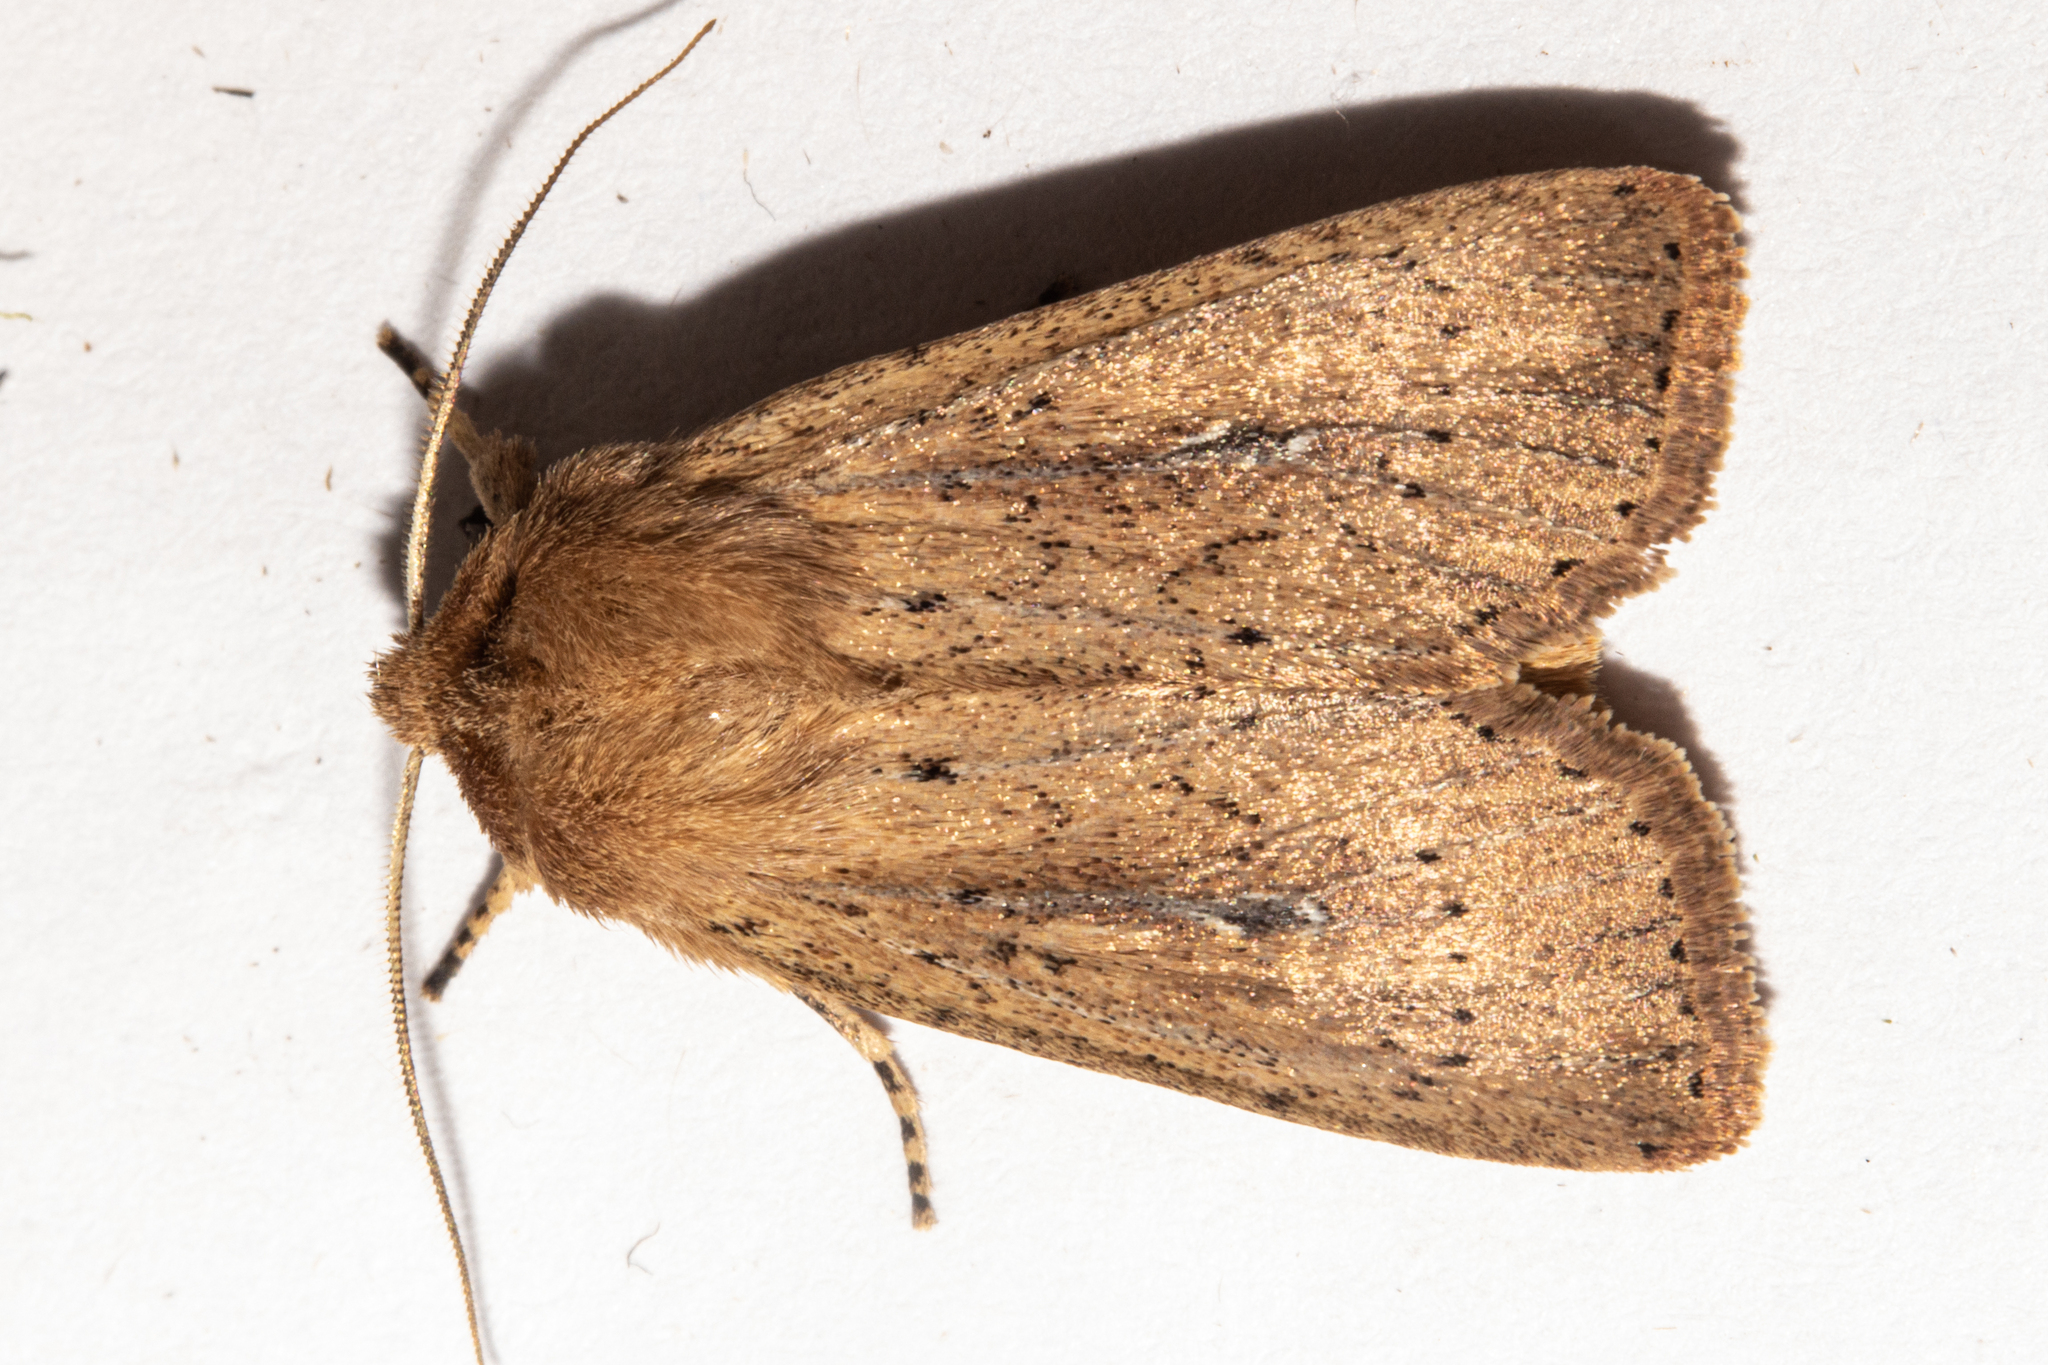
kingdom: Animalia
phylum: Arthropoda
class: Insecta
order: Lepidoptera
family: Noctuidae
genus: Ichneutica
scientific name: Ichneutica
